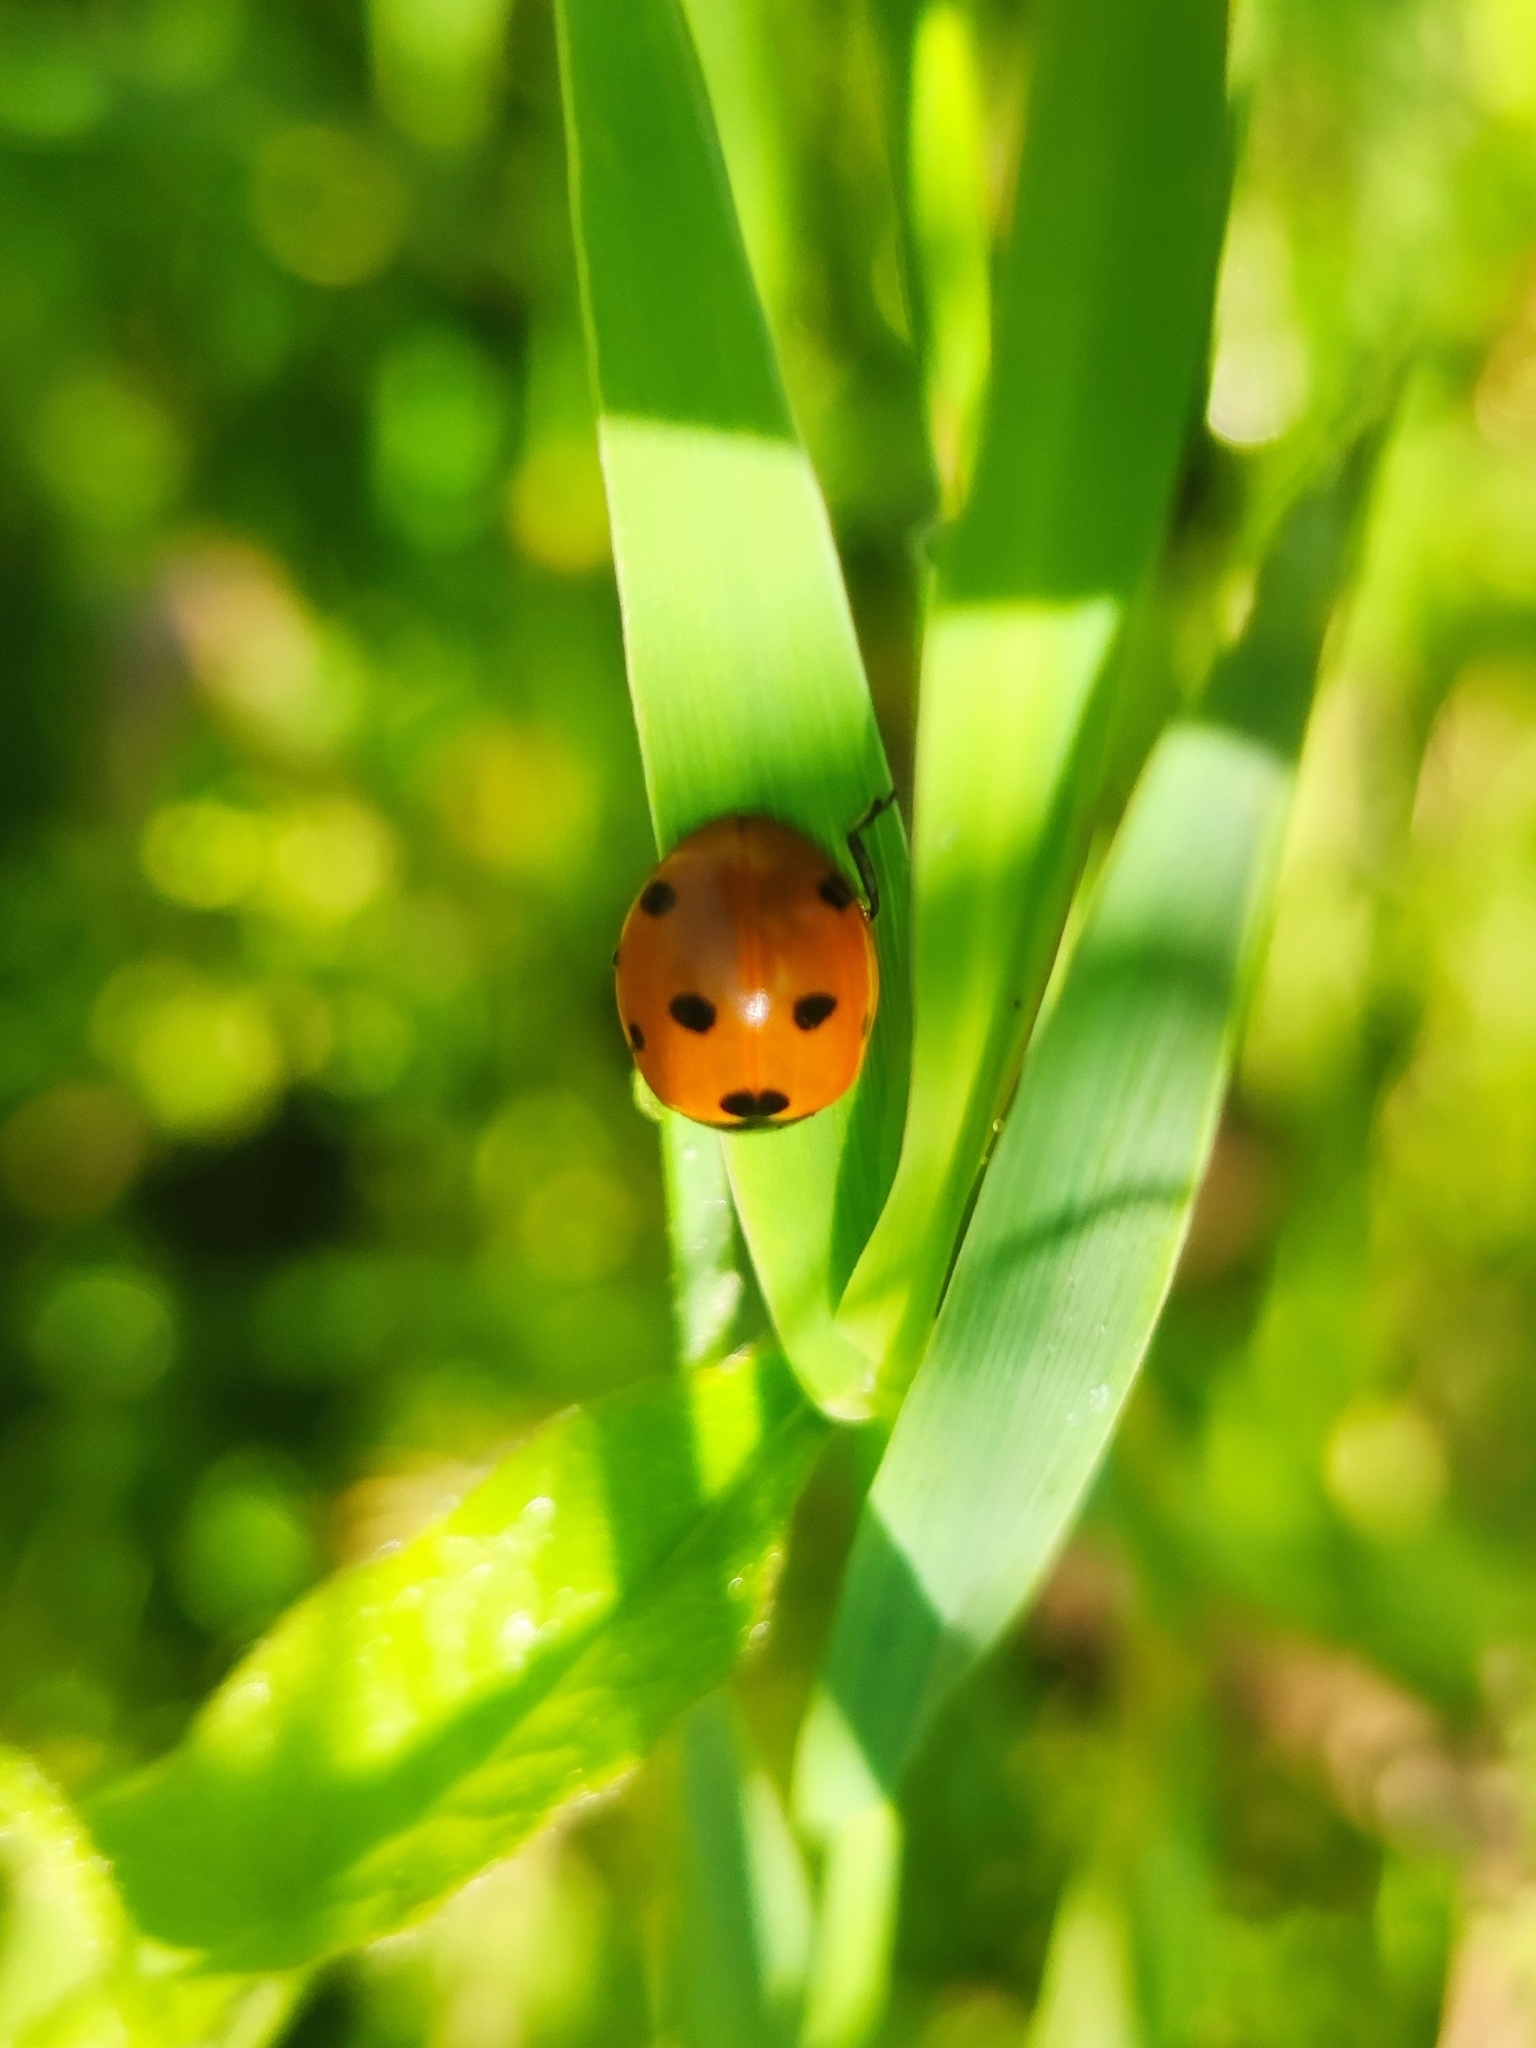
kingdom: Animalia
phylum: Arthropoda
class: Insecta
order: Coleoptera
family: Coccinellidae
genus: Coccinella
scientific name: Coccinella septempunctata
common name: Sevenspotted lady beetle
